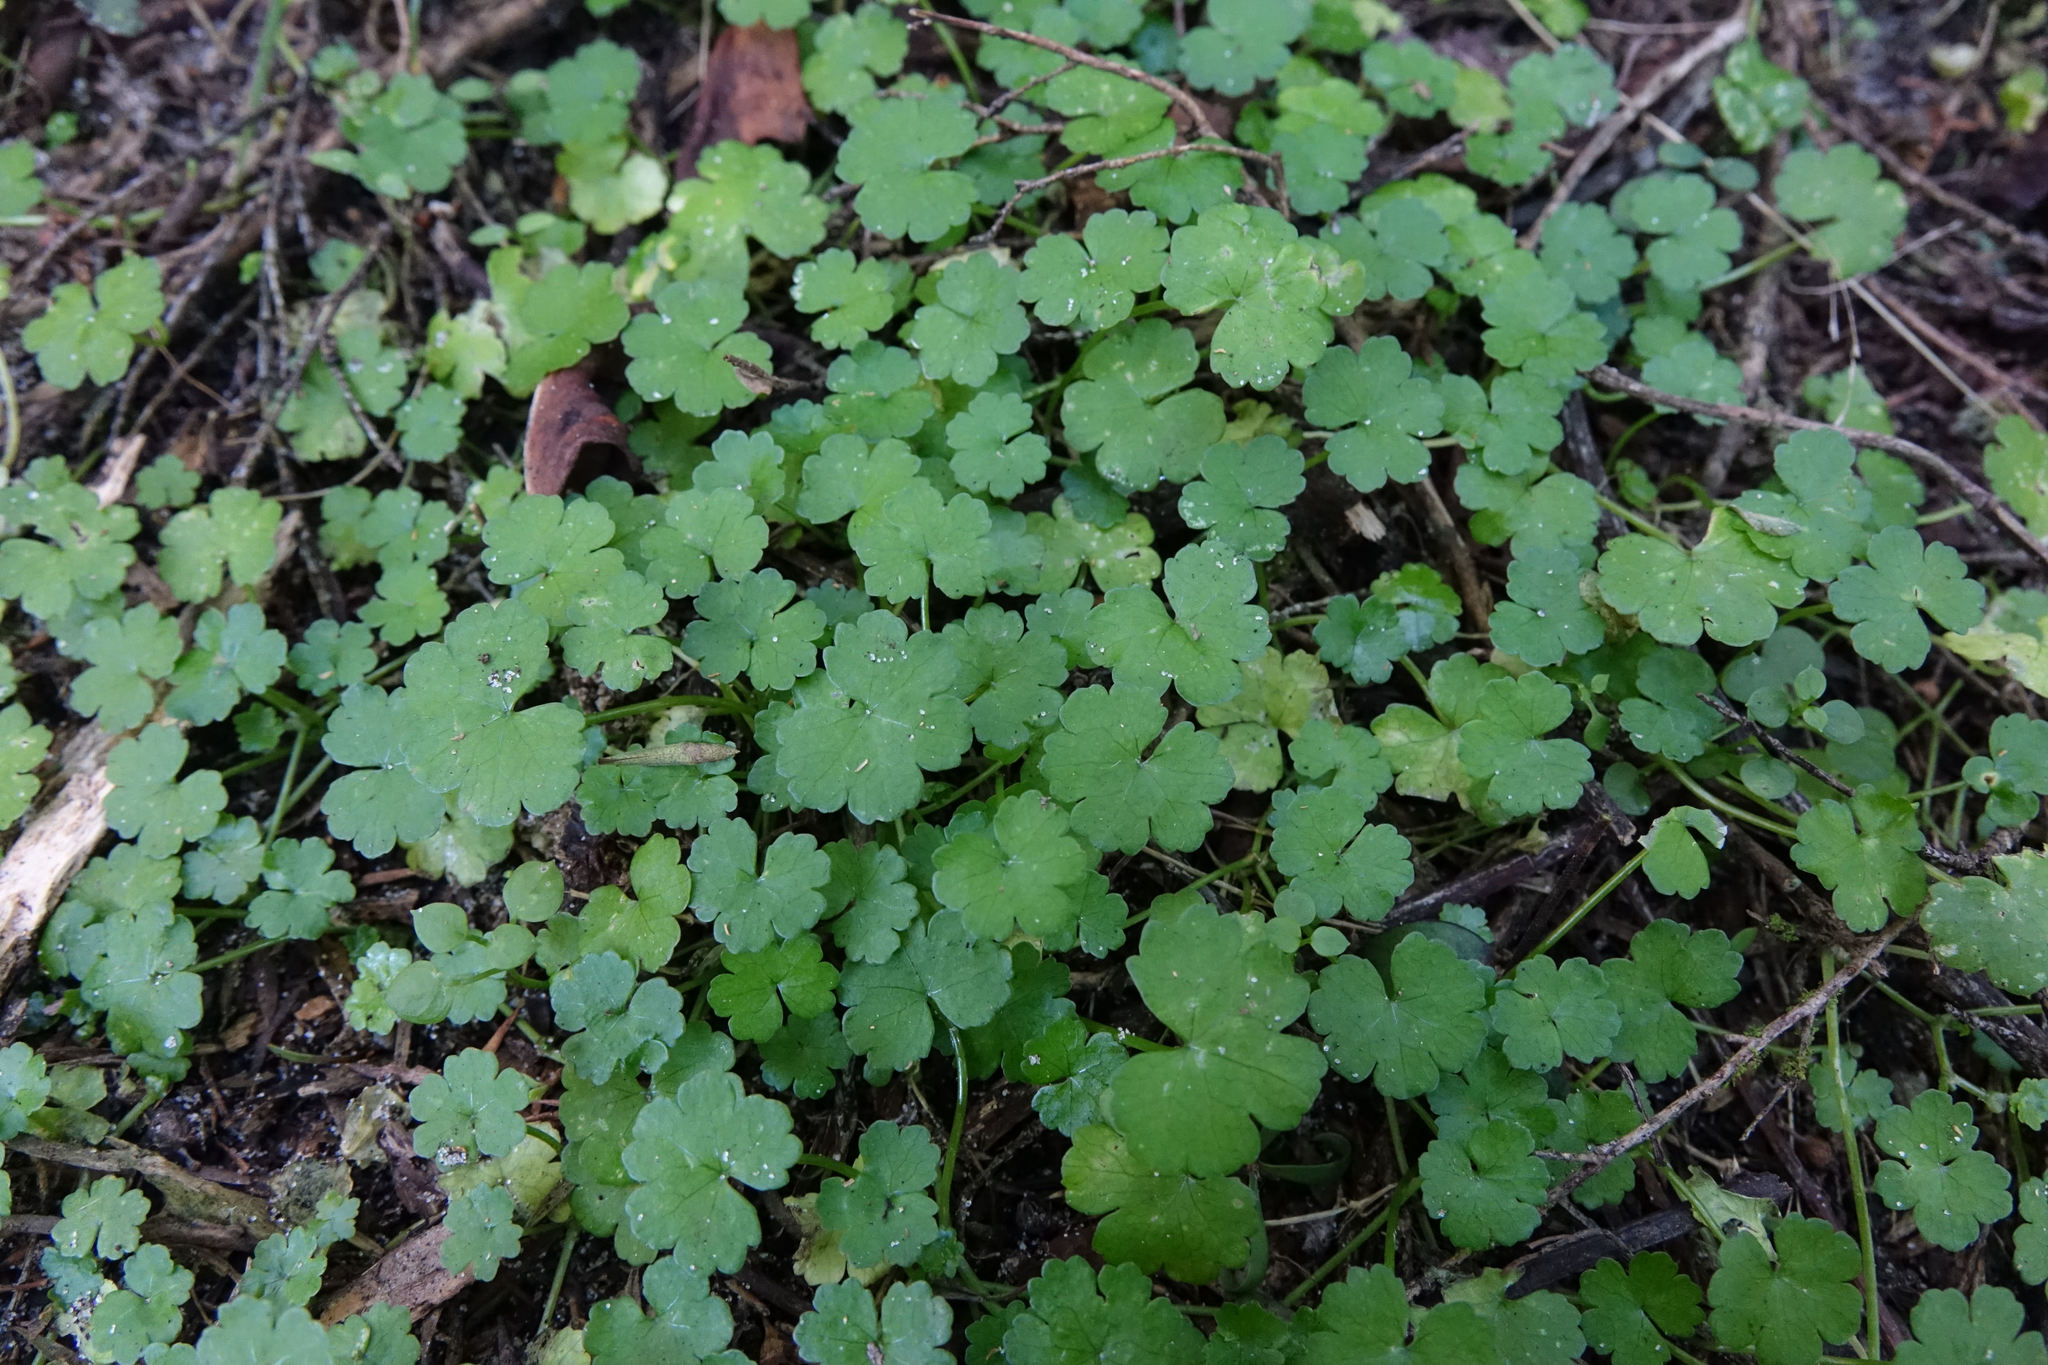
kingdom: Plantae
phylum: Tracheophyta
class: Magnoliopsida
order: Apiales
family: Araliaceae
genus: Hydrocotyle
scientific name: Hydrocotyle heteromeria
